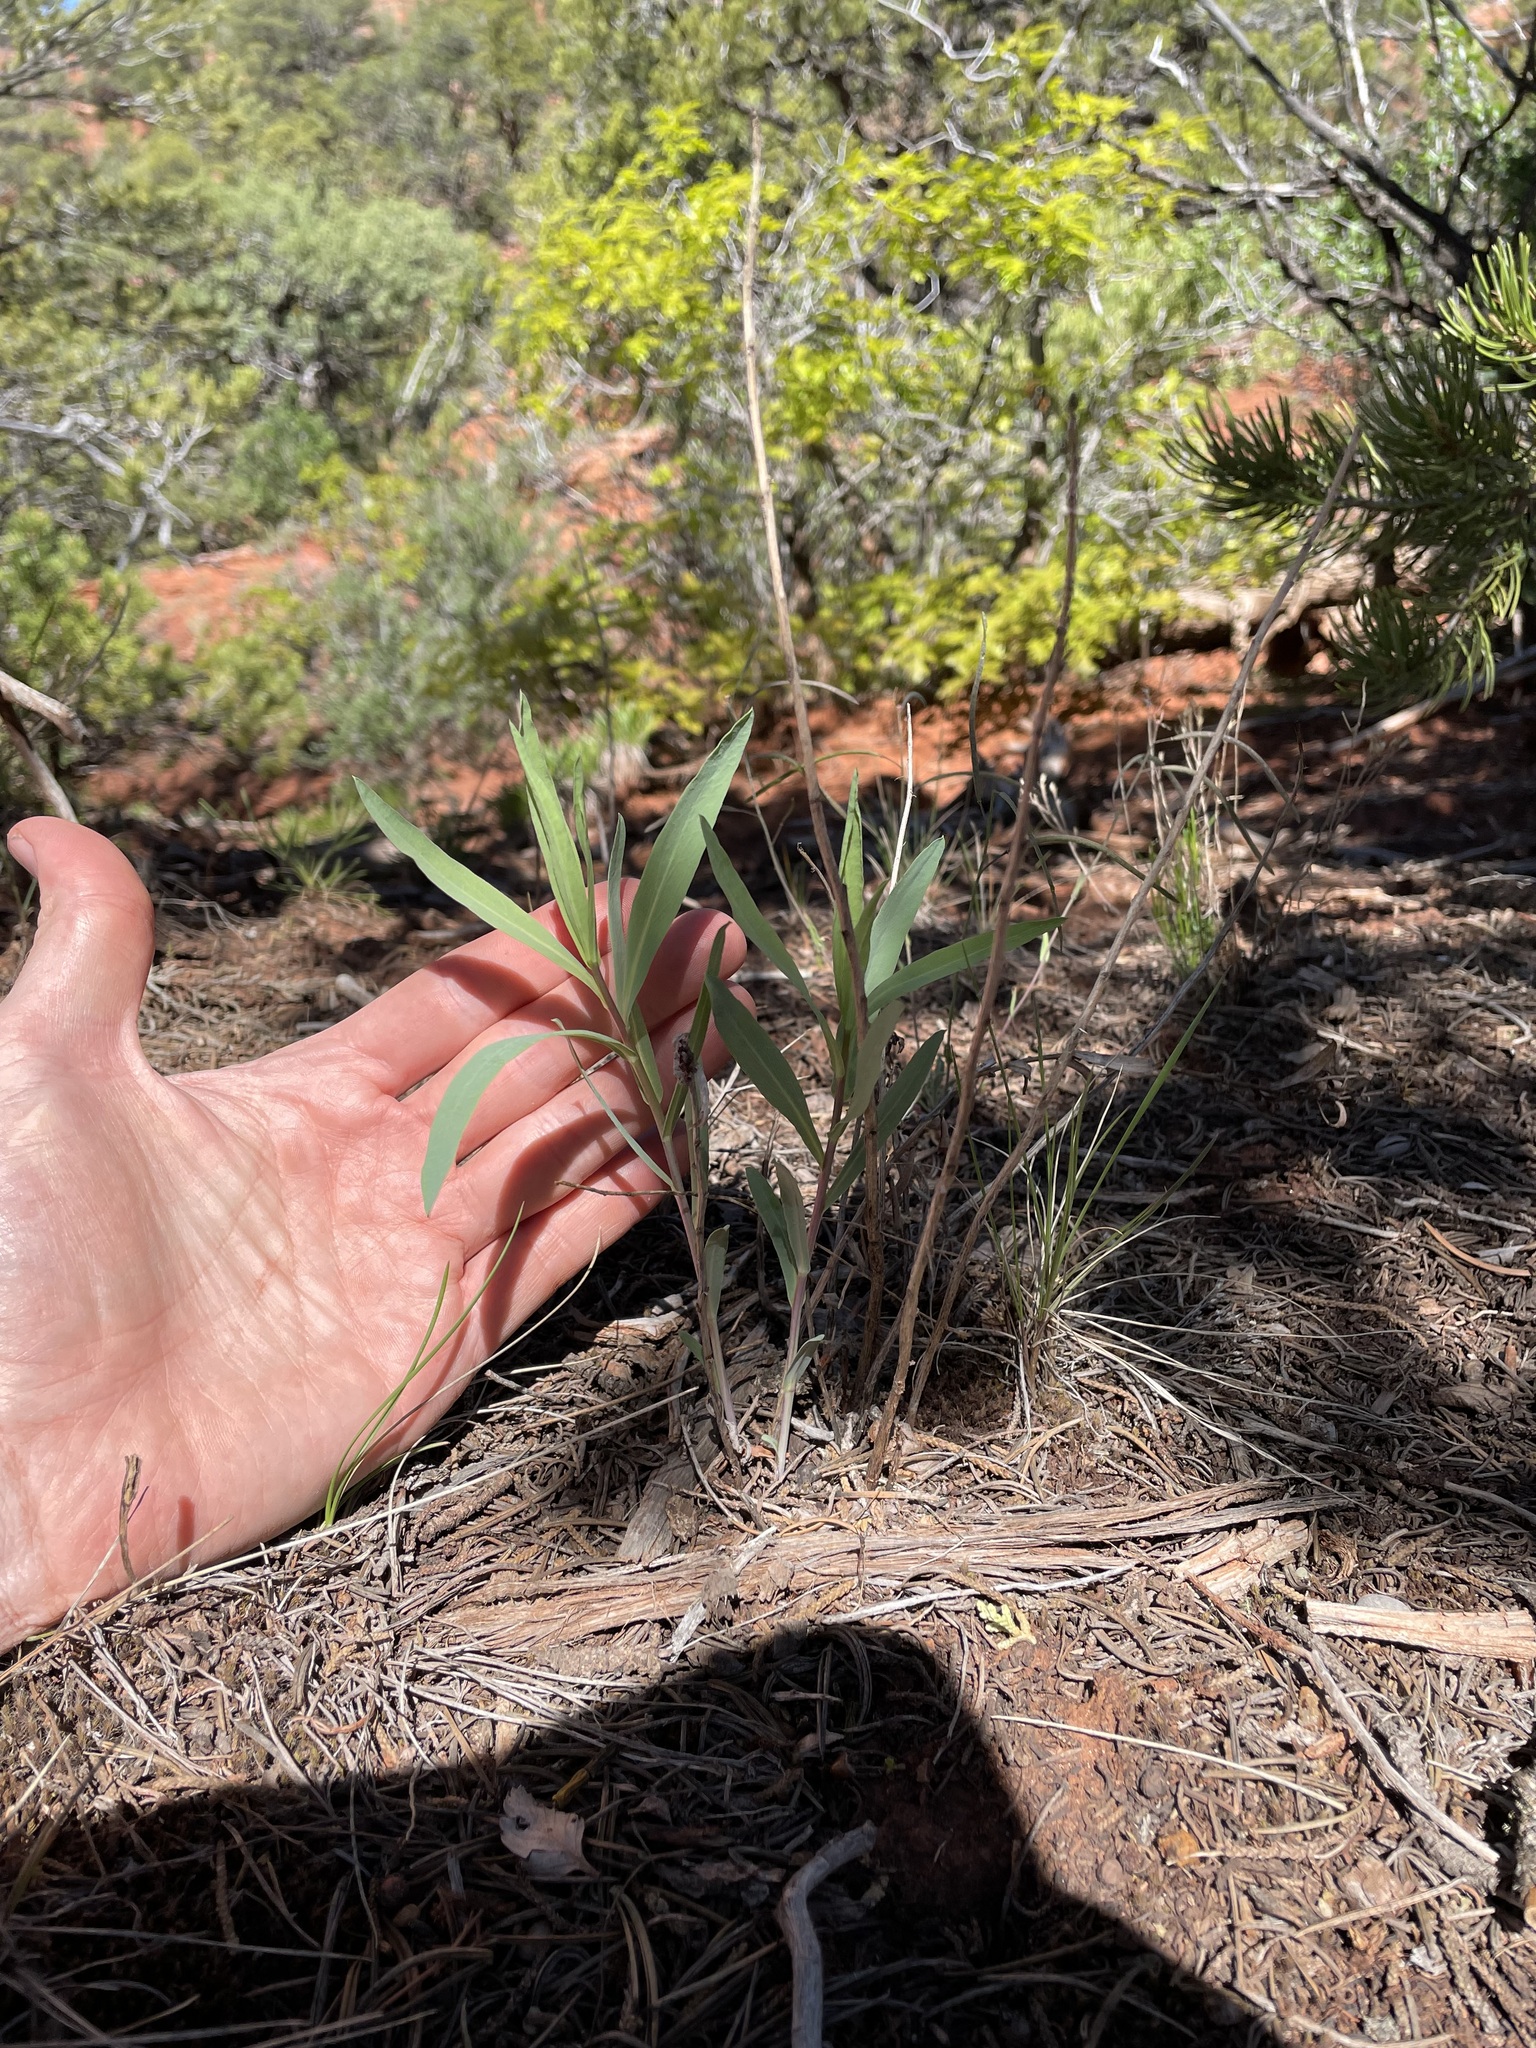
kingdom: Plantae
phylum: Tracheophyta
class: Magnoliopsida
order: Asterales
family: Asteraceae
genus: Eurybia
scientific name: Eurybia glauca
